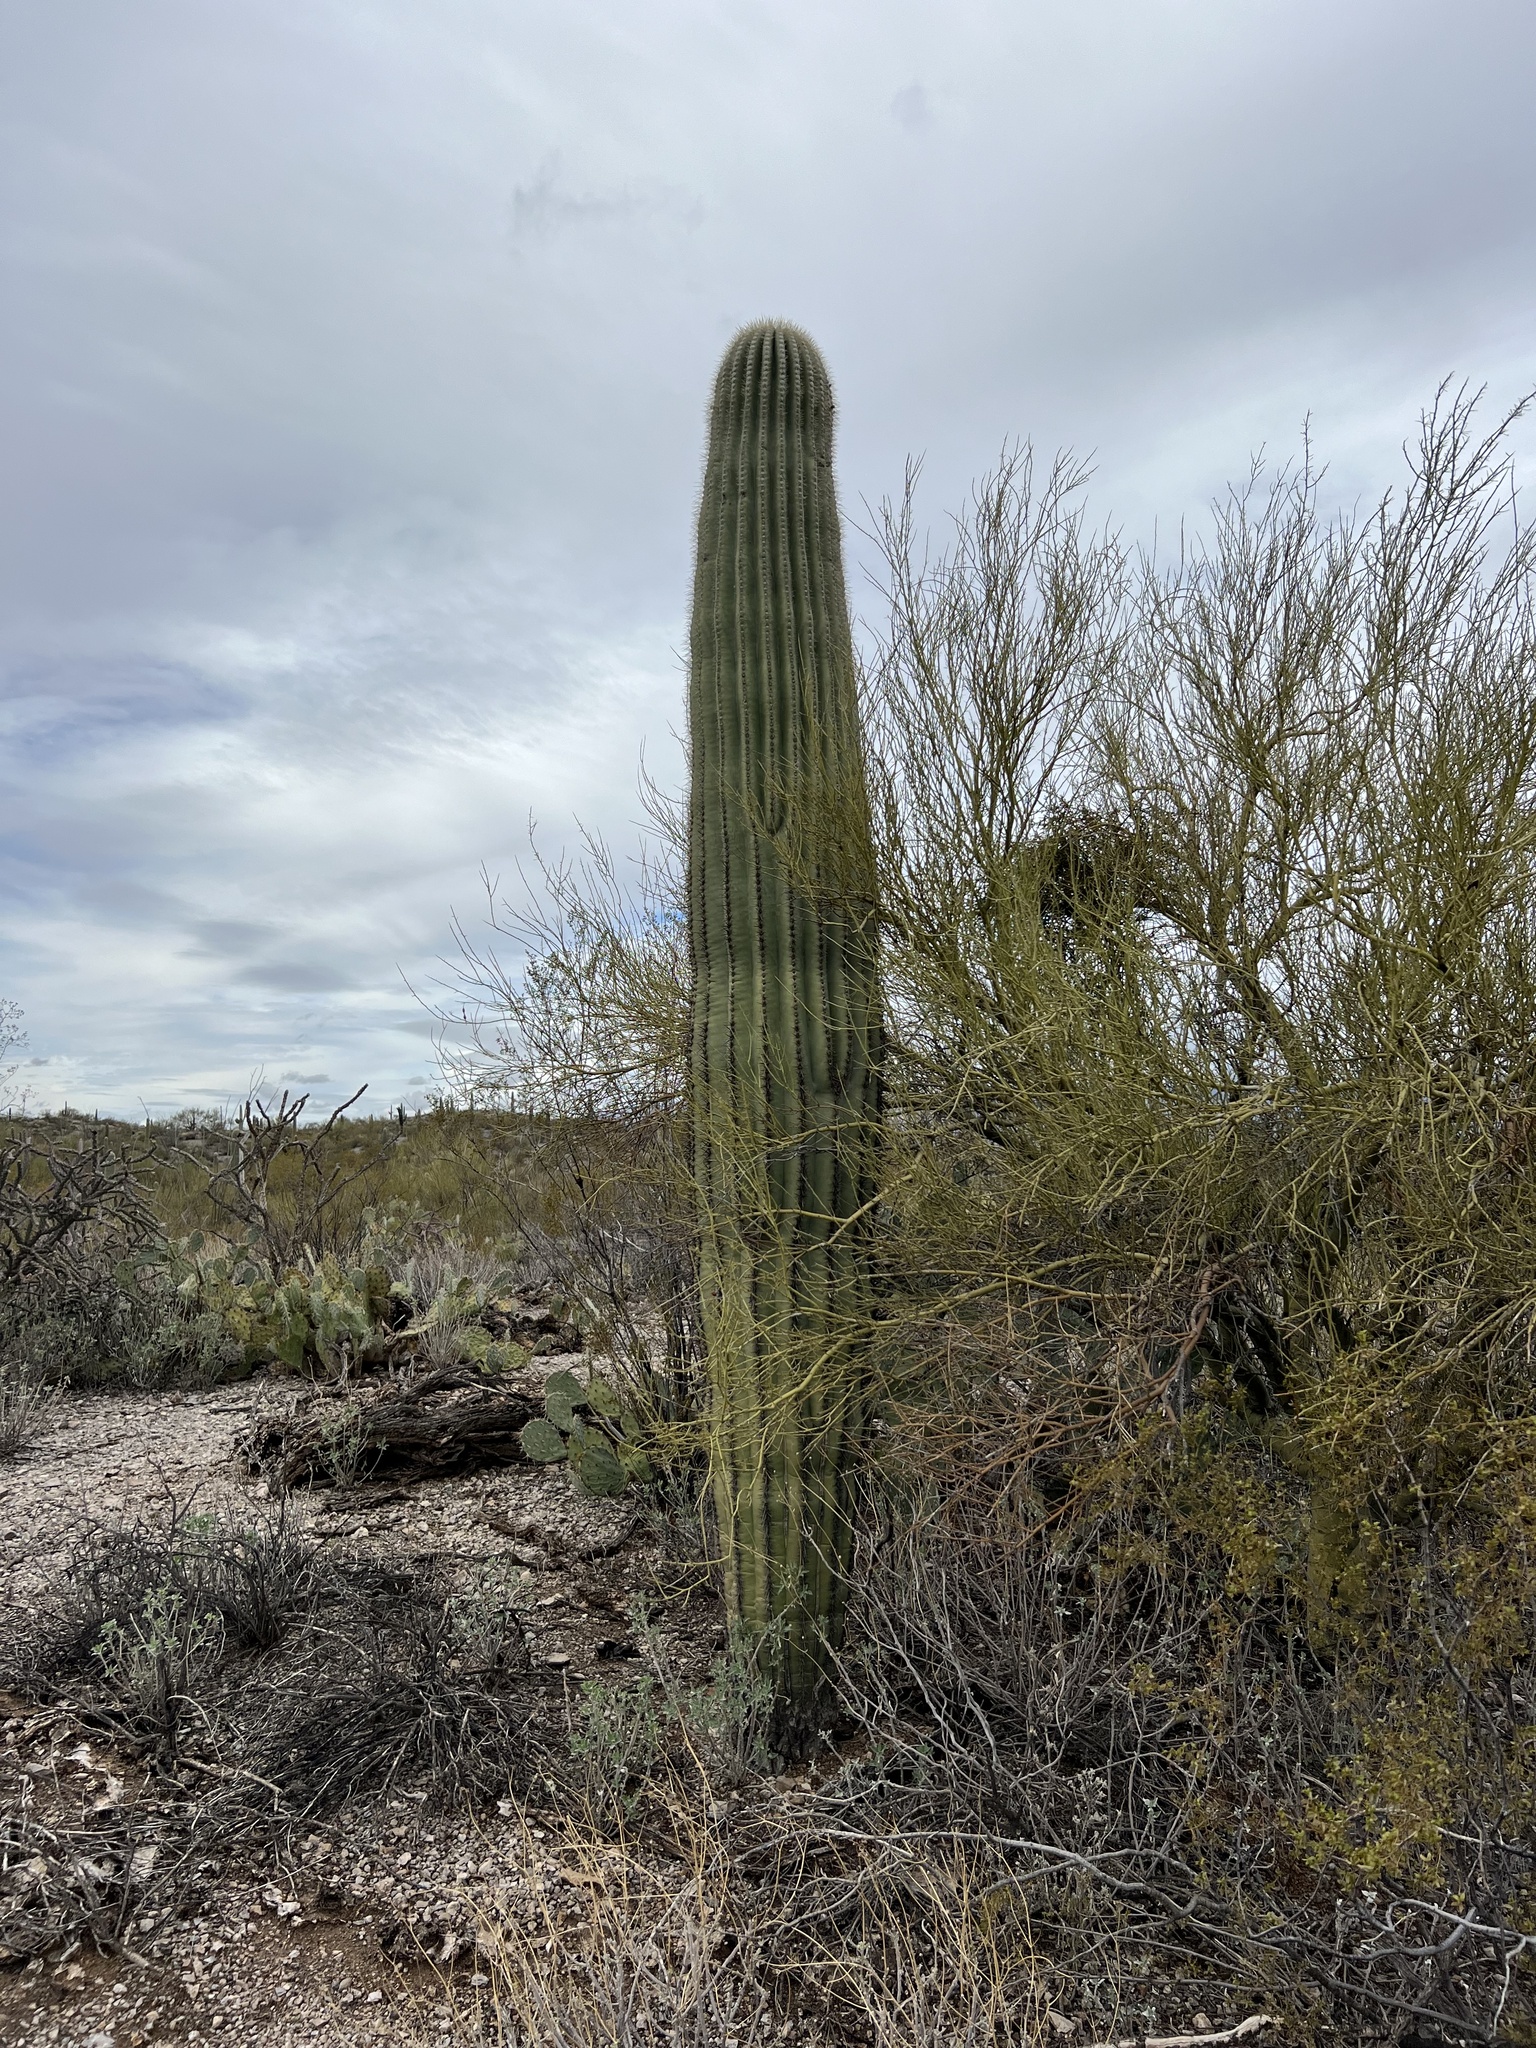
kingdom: Plantae
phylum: Tracheophyta
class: Magnoliopsida
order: Caryophyllales
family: Cactaceae
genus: Carnegiea
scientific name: Carnegiea gigantea
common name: Saguaro
